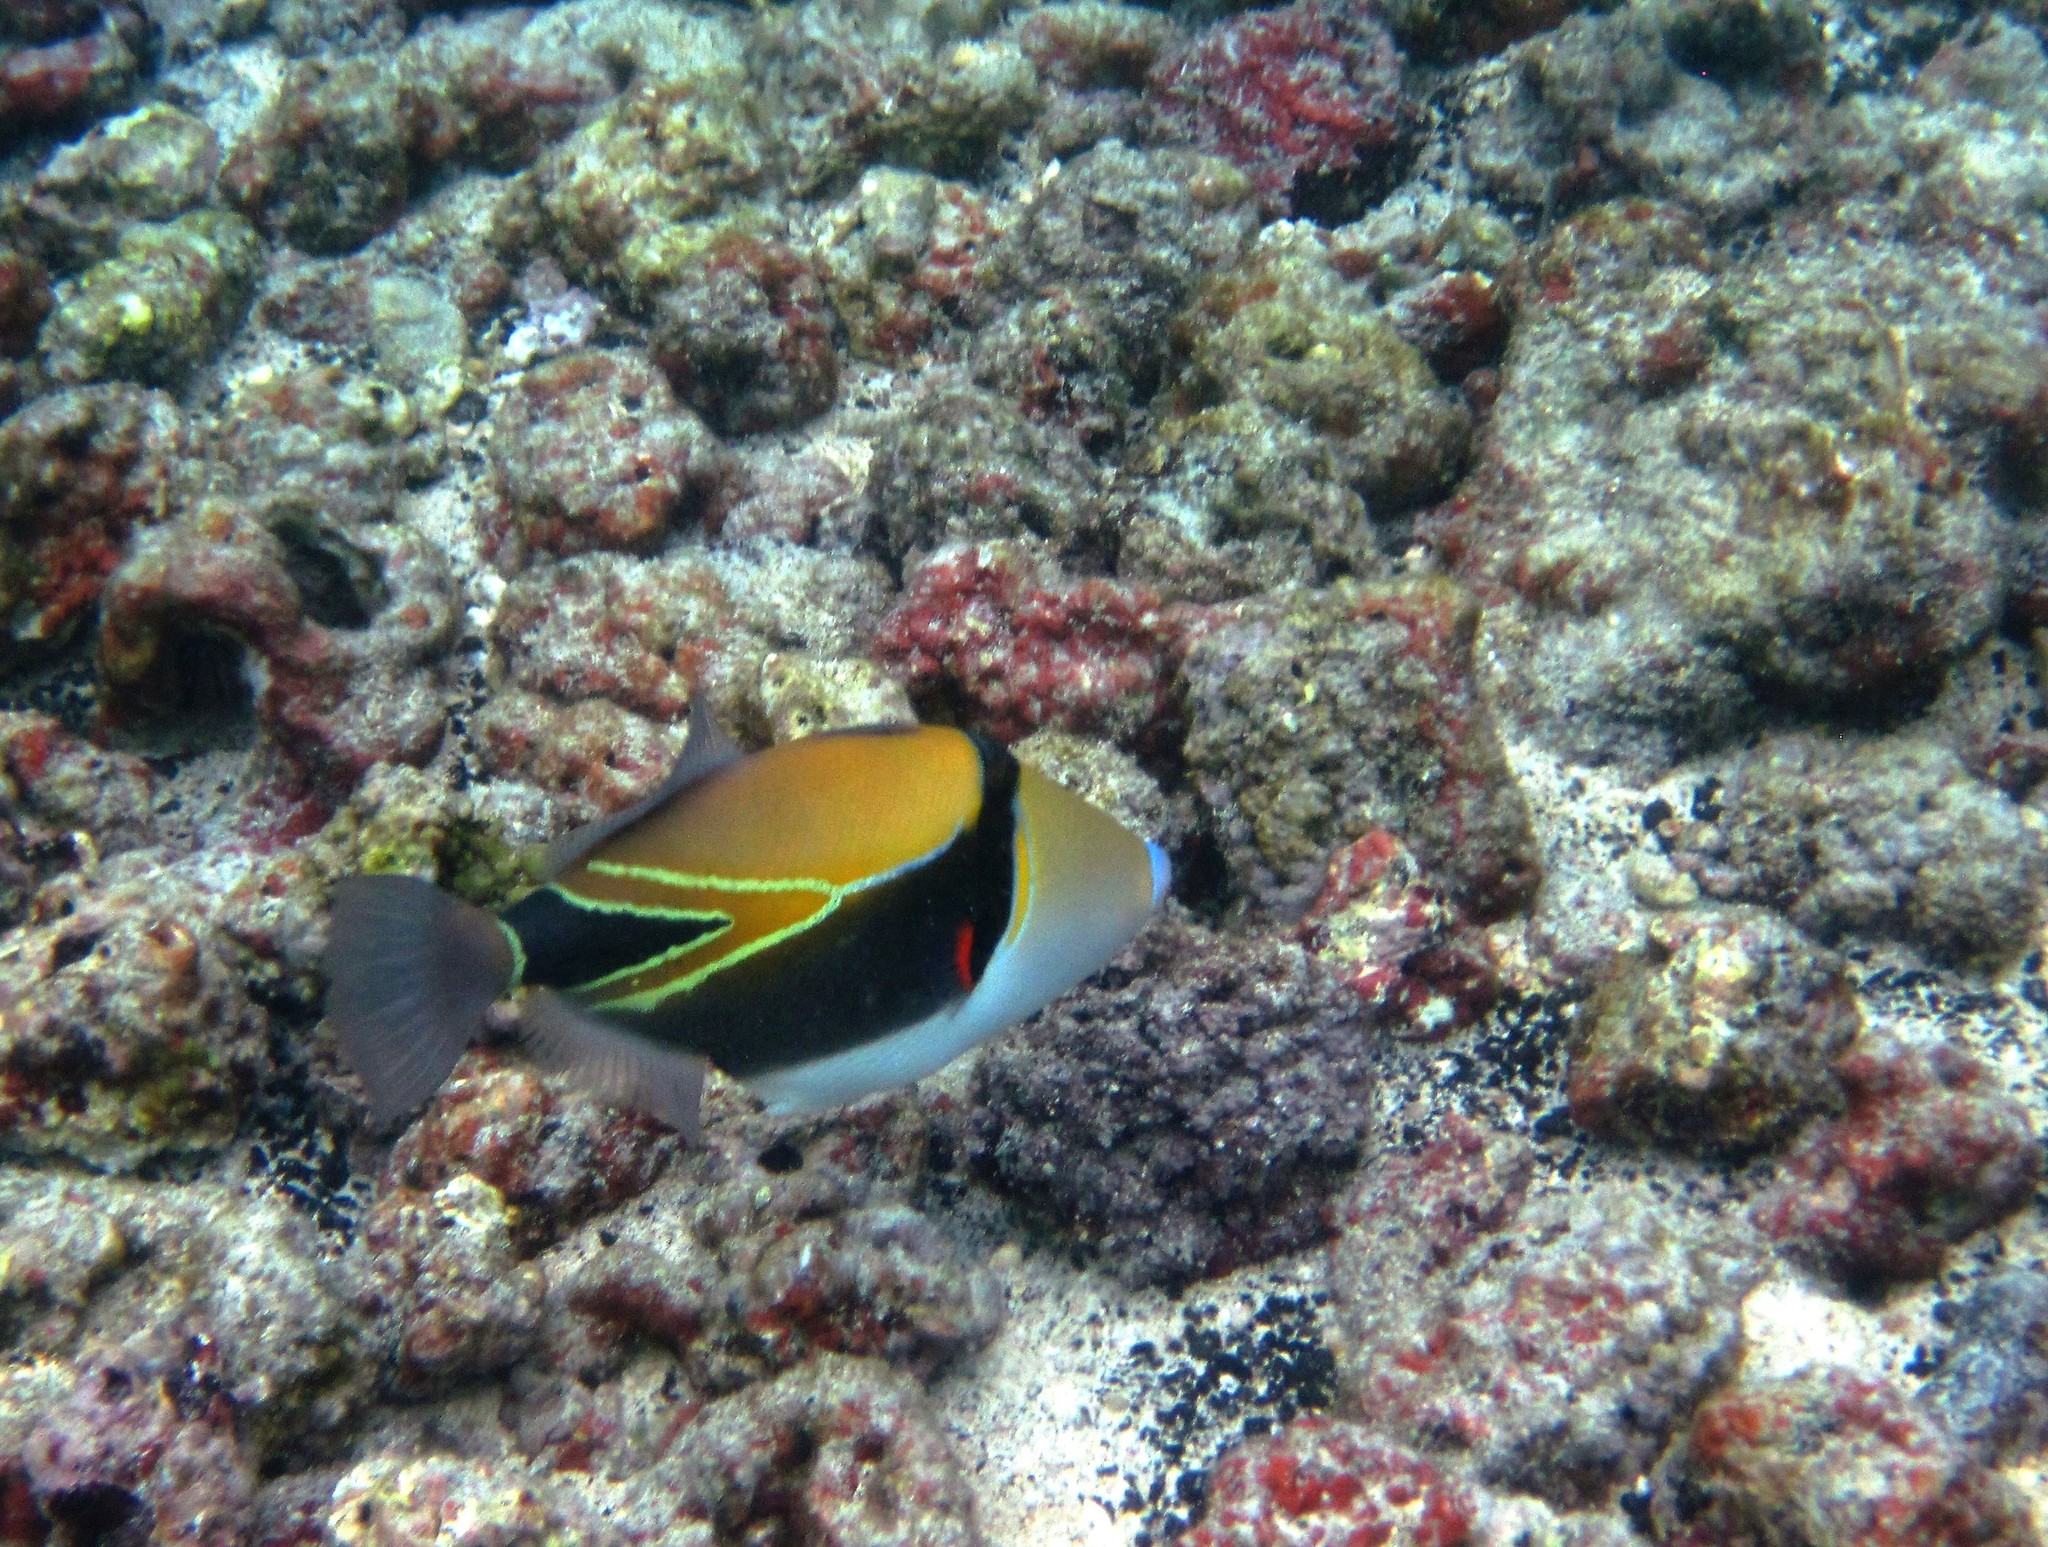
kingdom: Animalia
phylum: Chordata
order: Tetraodontiformes
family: Balistidae
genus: Rhinecanthus
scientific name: Rhinecanthus rectangulus
